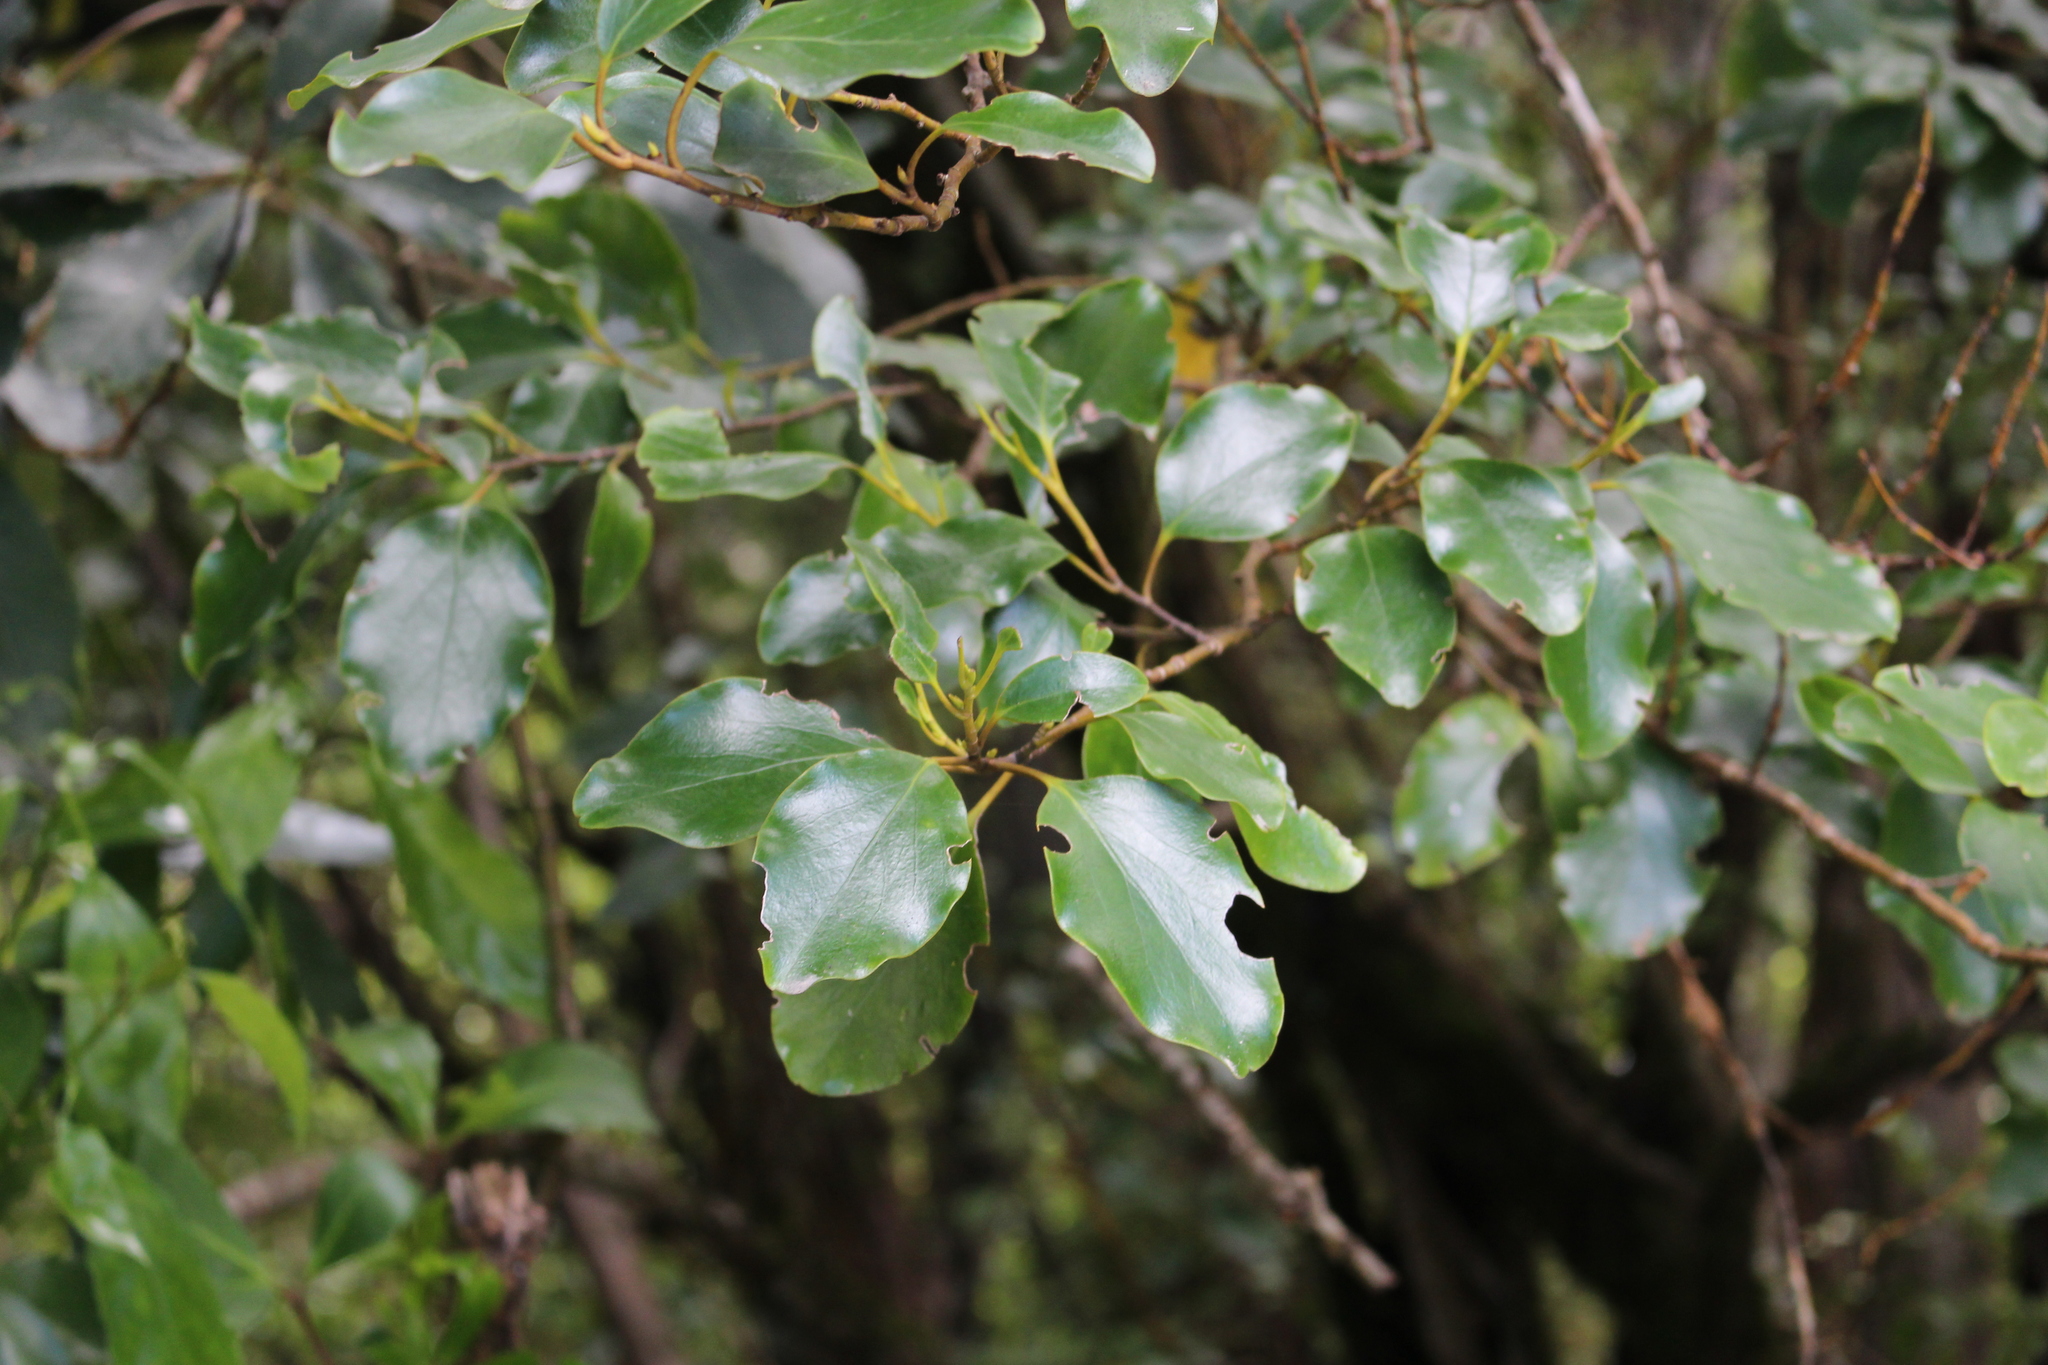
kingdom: Plantae
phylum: Tracheophyta
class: Magnoliopsida
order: Apiales
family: Griseliniaceae
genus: Griselinia
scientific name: Griselinia littoralis
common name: New zealand broadleaf
